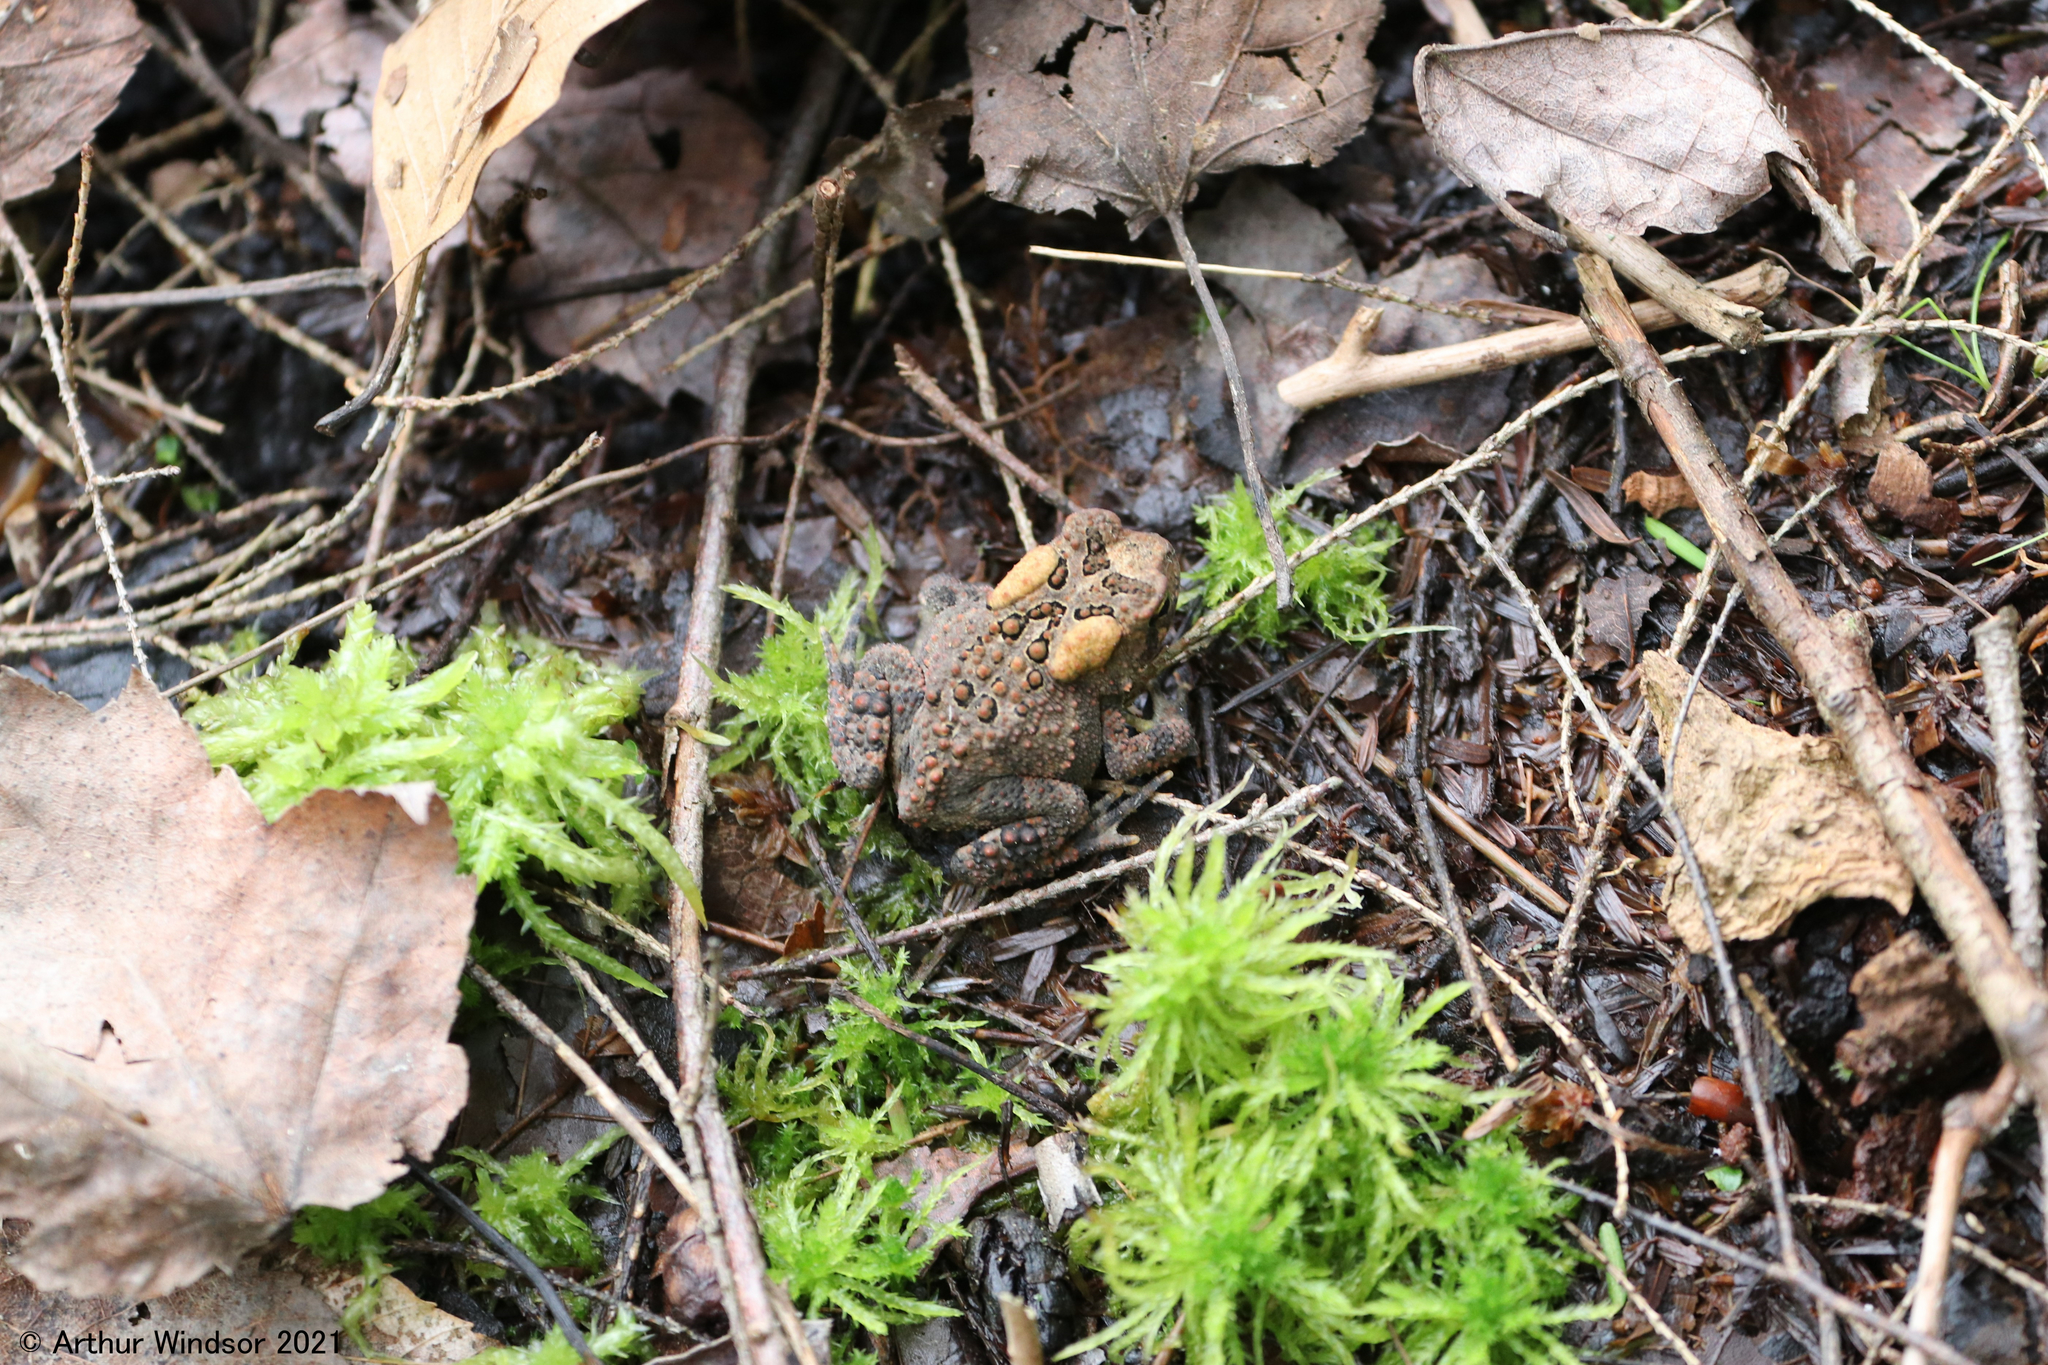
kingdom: Animalia
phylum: Chordata
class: Amphibia
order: Anura
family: Bufonidae
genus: Anaxyrus
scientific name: Anaxyrus americanus
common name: American toad
